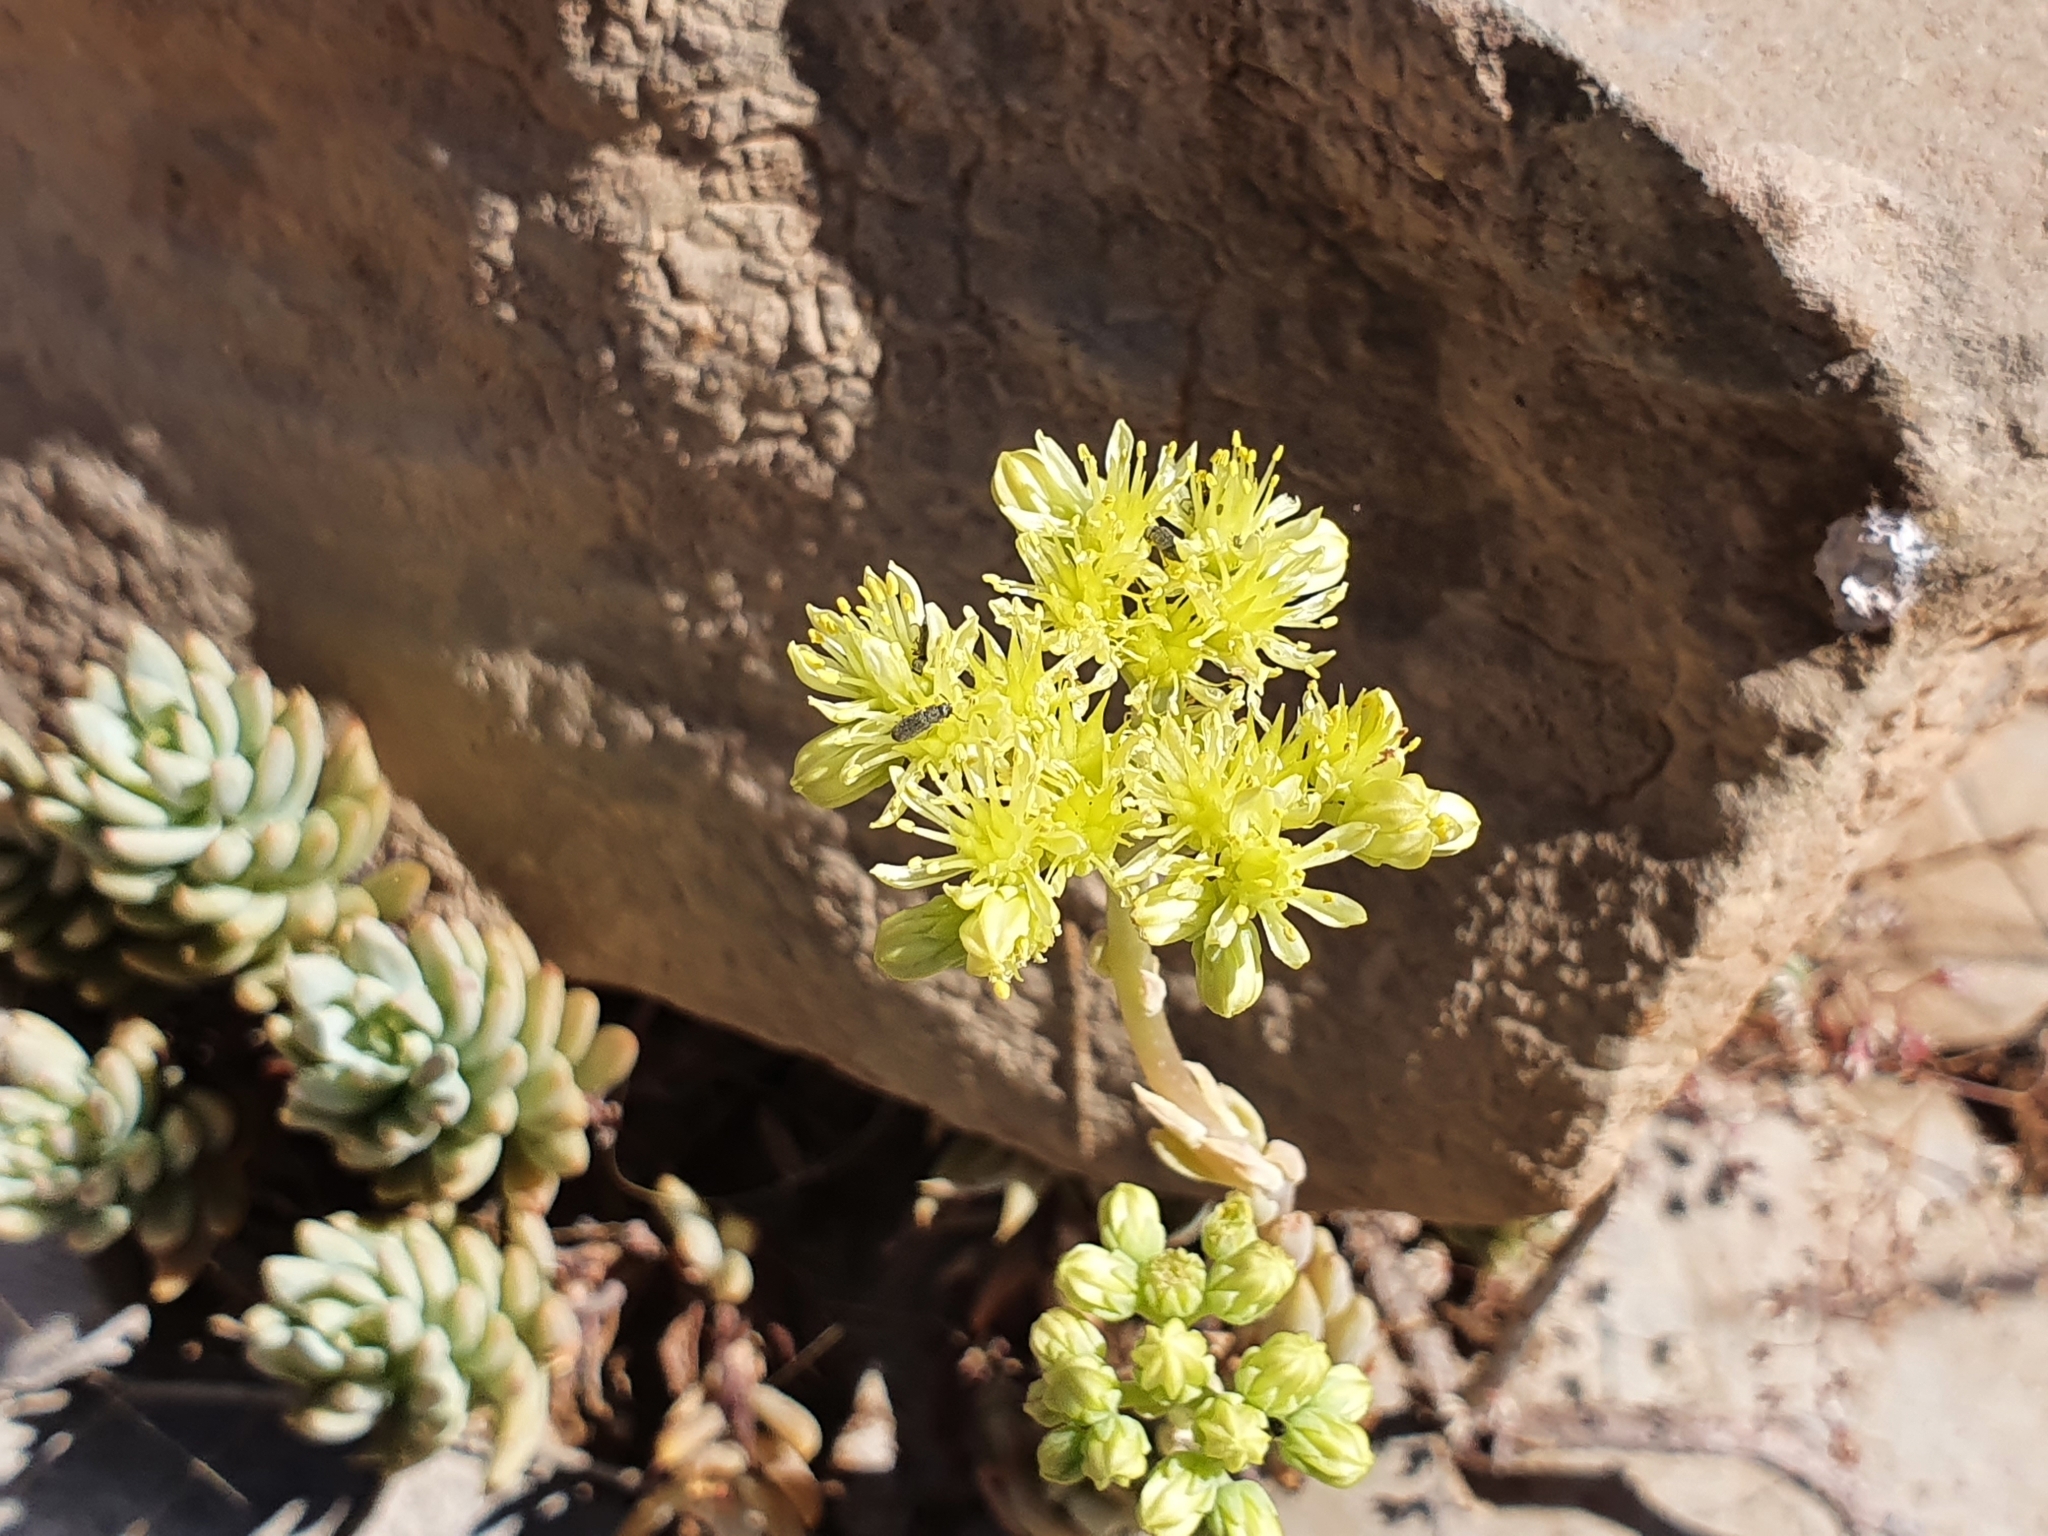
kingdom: Plantae
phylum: Tracheophyta
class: Magnoliopsida
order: Saxifragales
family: Crassulaceae
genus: Petrosedum
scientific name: Petrosedum sediforme
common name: Pale stonecrop
